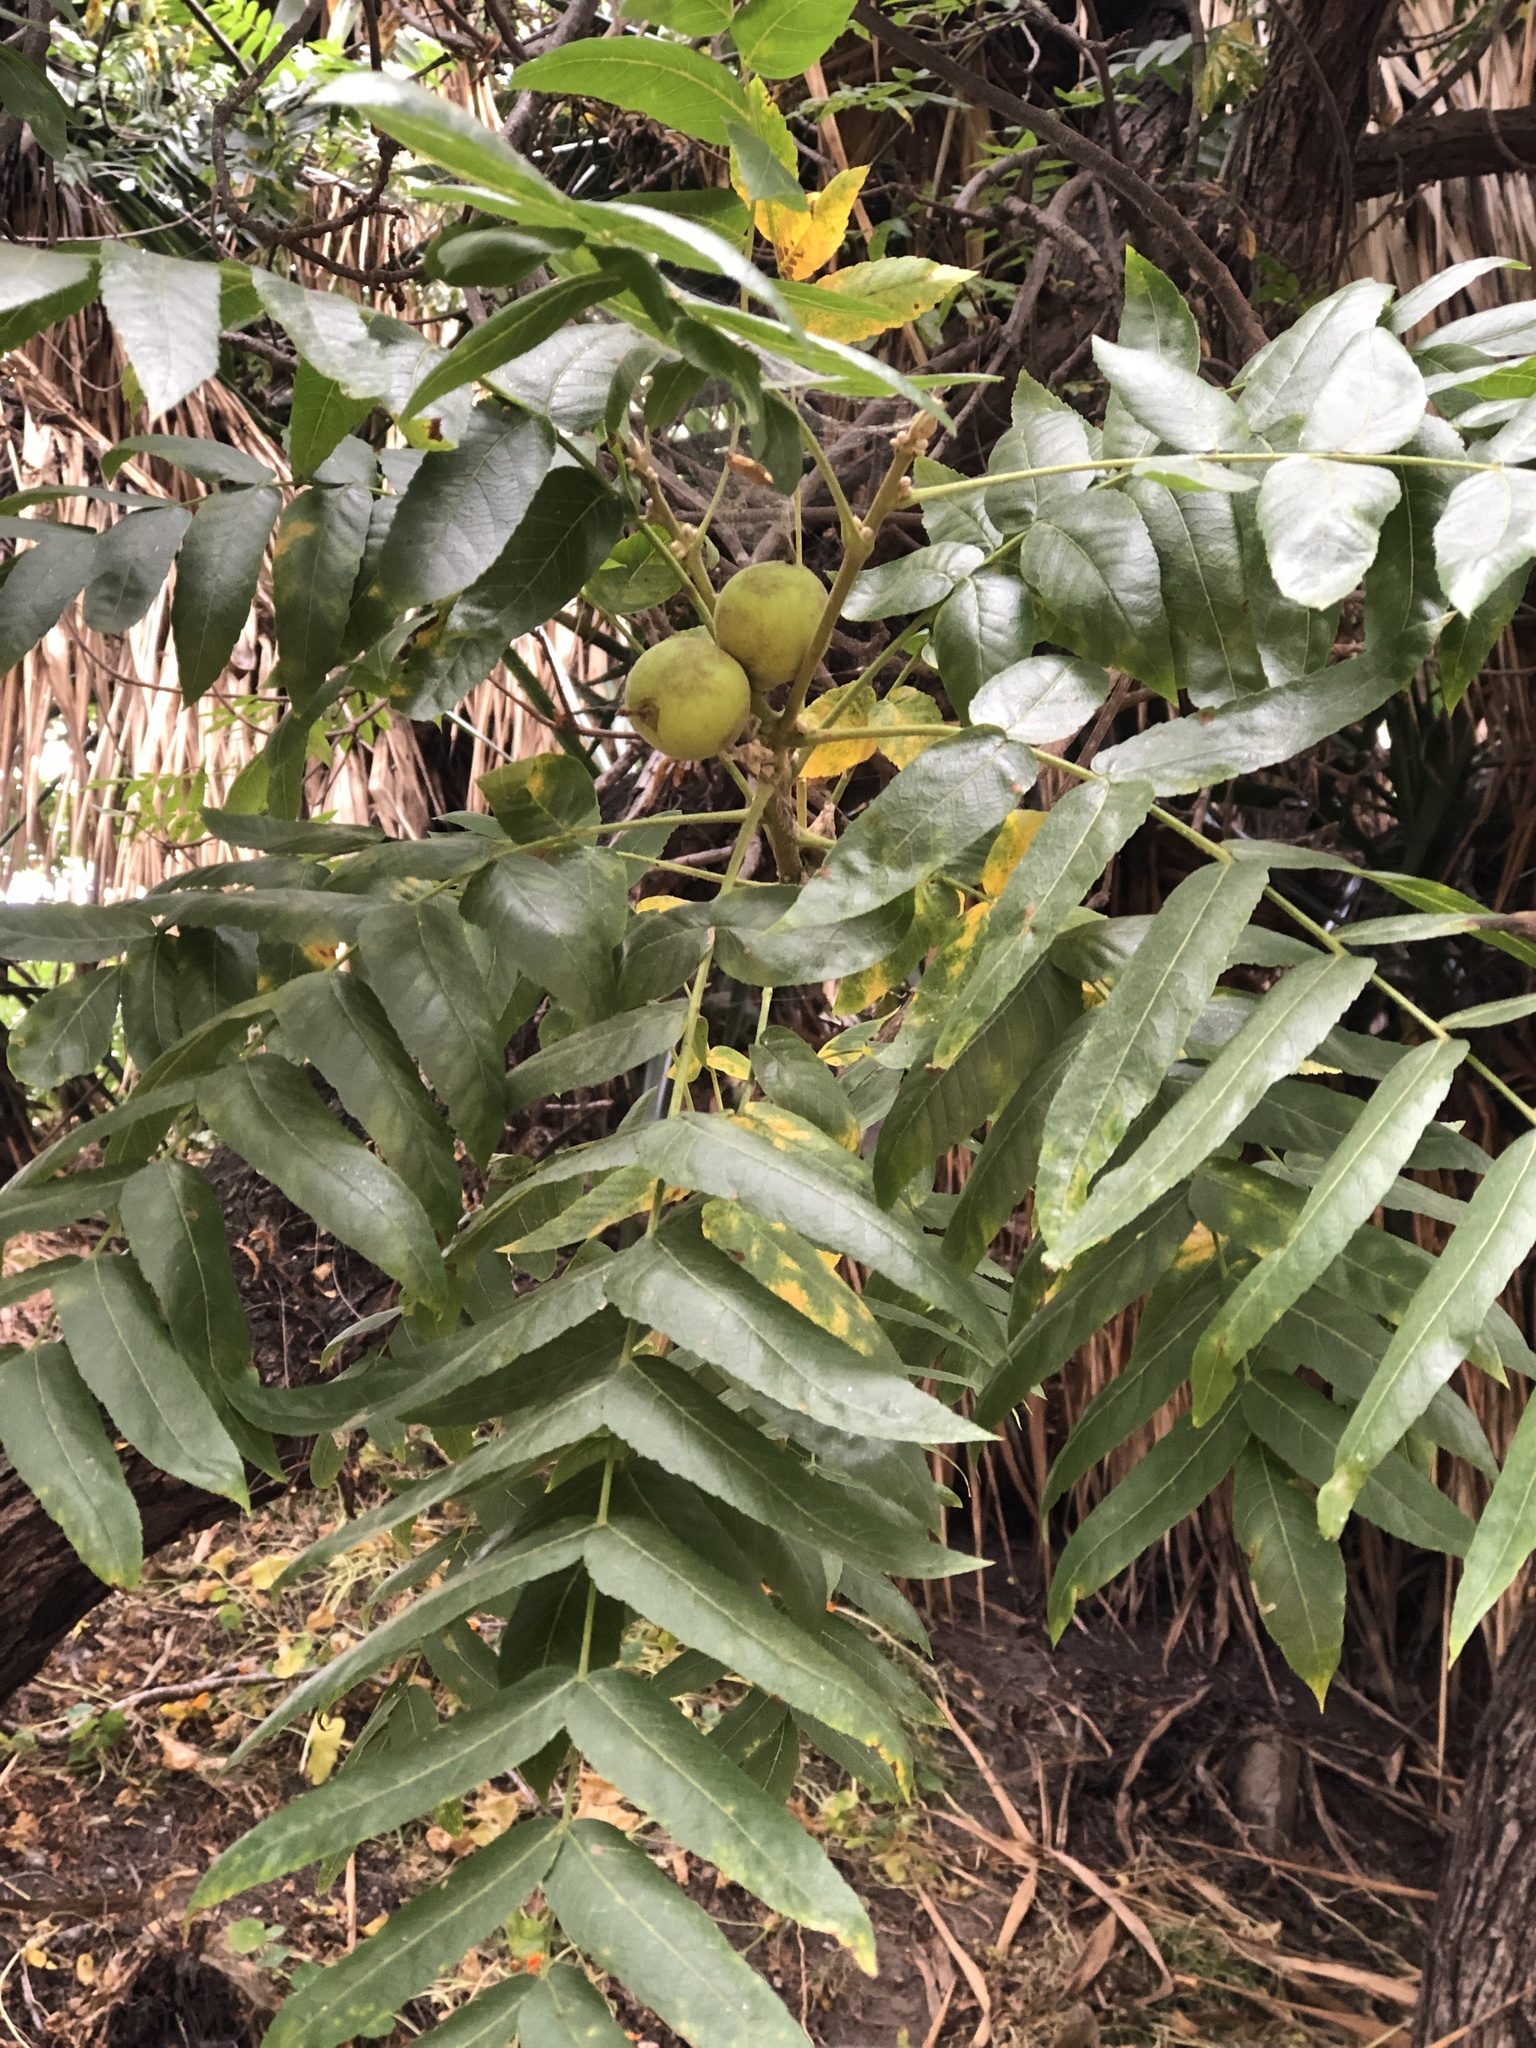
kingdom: Plantae
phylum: Tracheophyta
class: Magnoliopsida
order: Fagales
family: Juglandaceae
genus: Juglans
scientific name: Juglans californica
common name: Southern california black walnut
